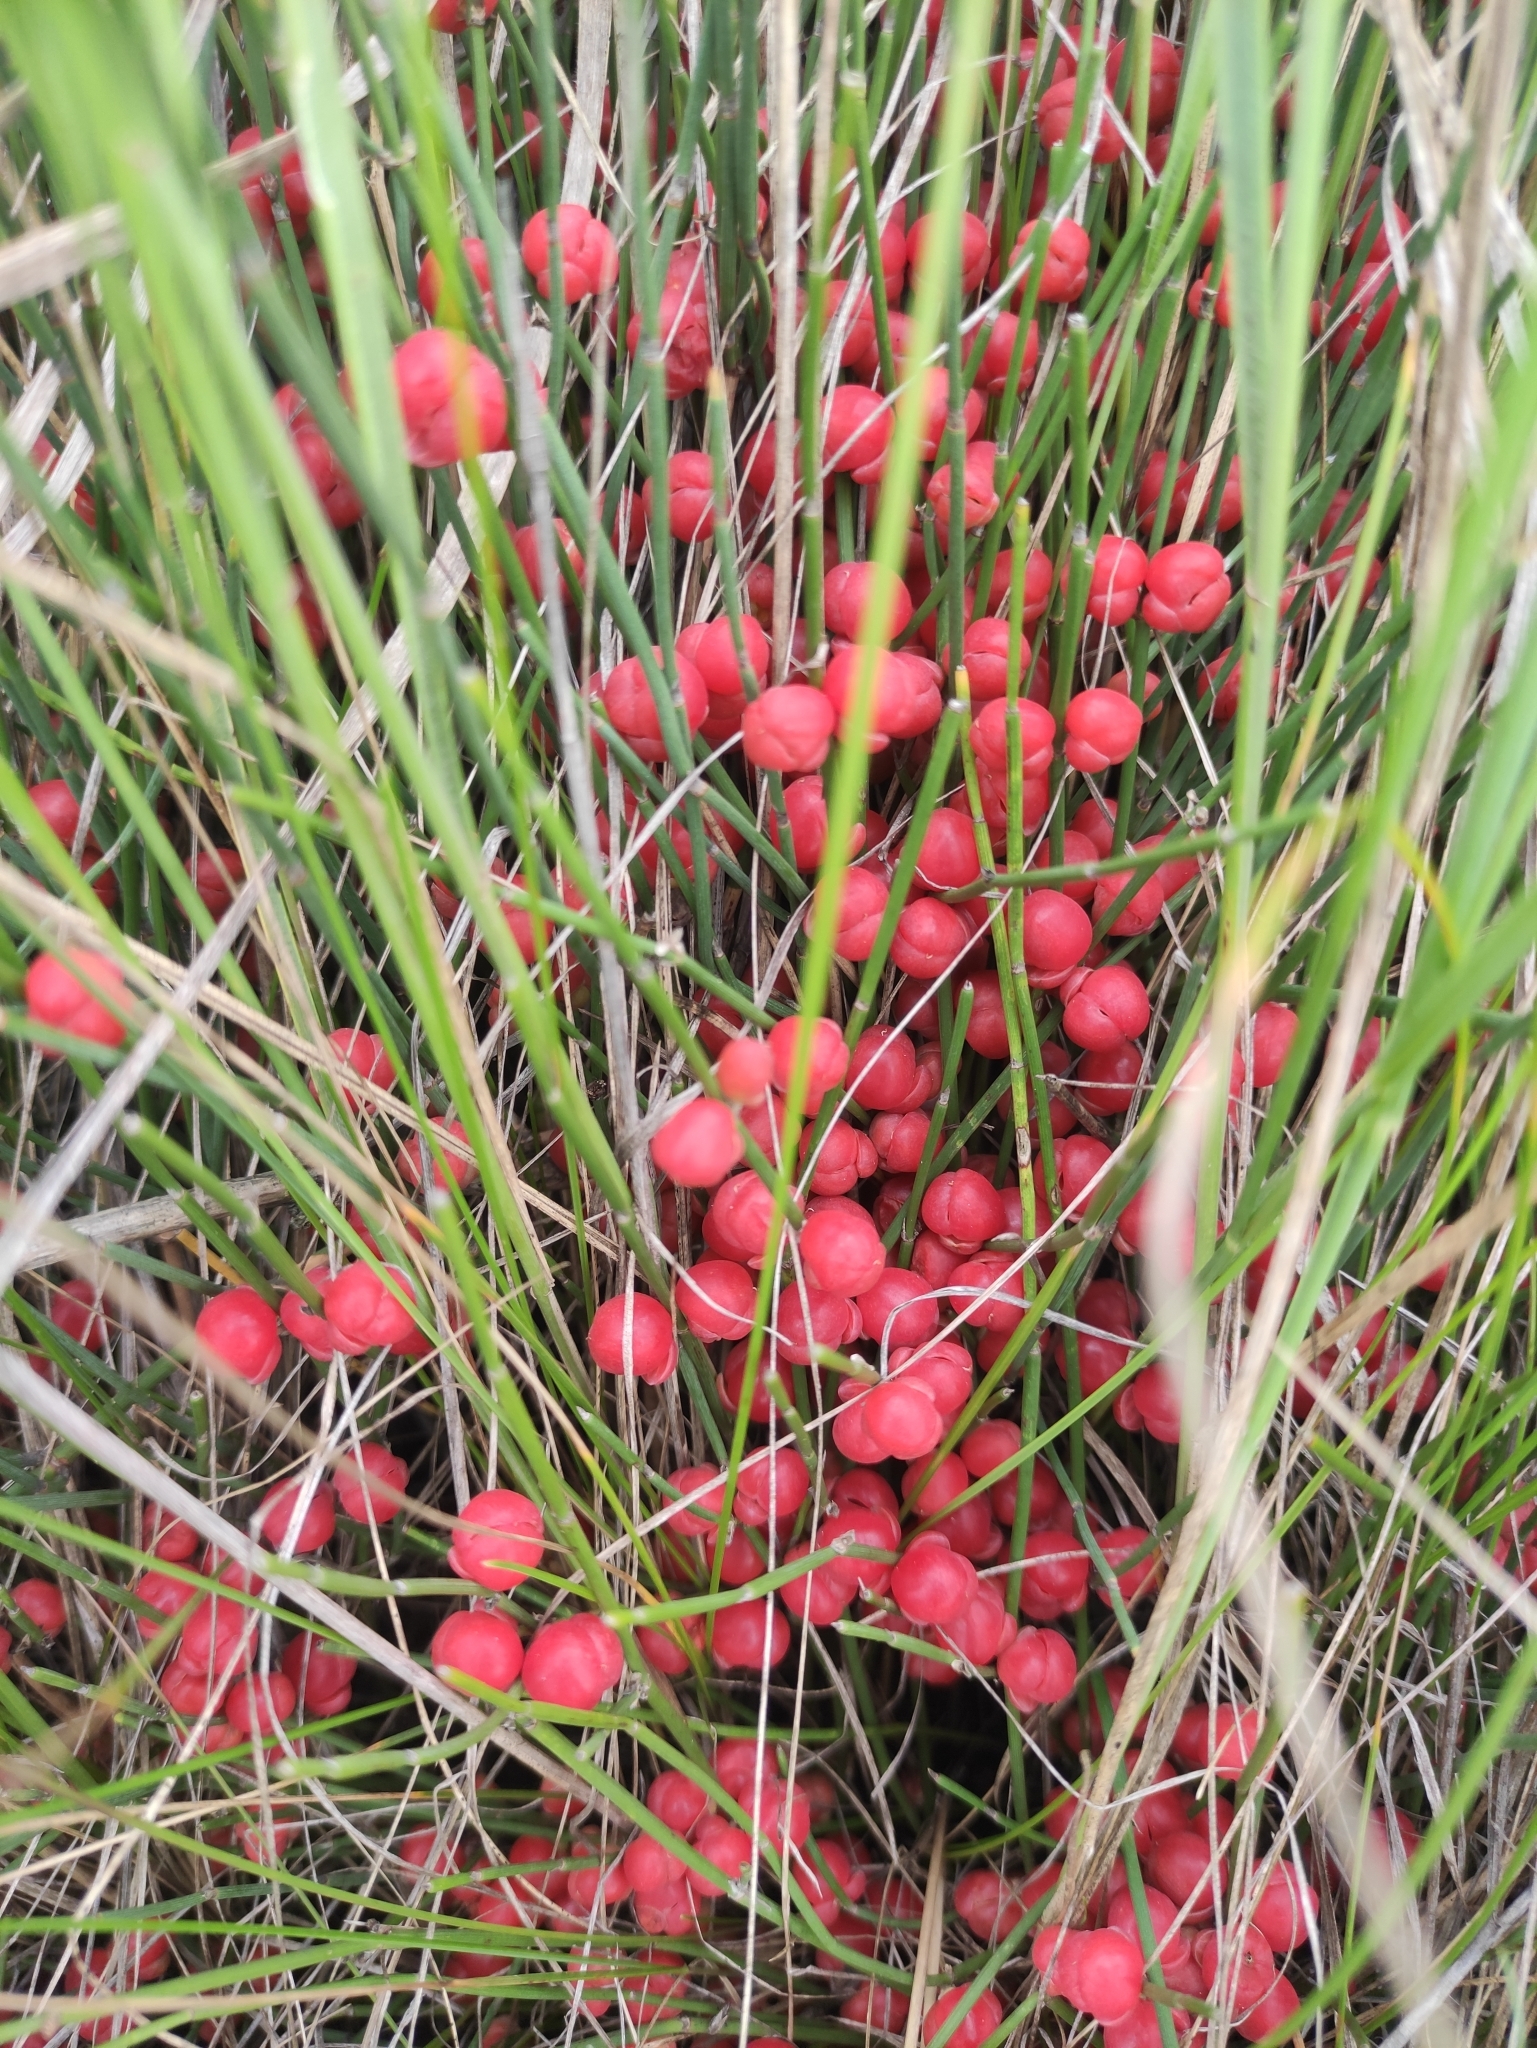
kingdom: Plantae
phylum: Tracheophyta
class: Gnetopsida
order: Ephedrales
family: Ephedraceae
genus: Ephedra
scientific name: Ephedra monosperma
